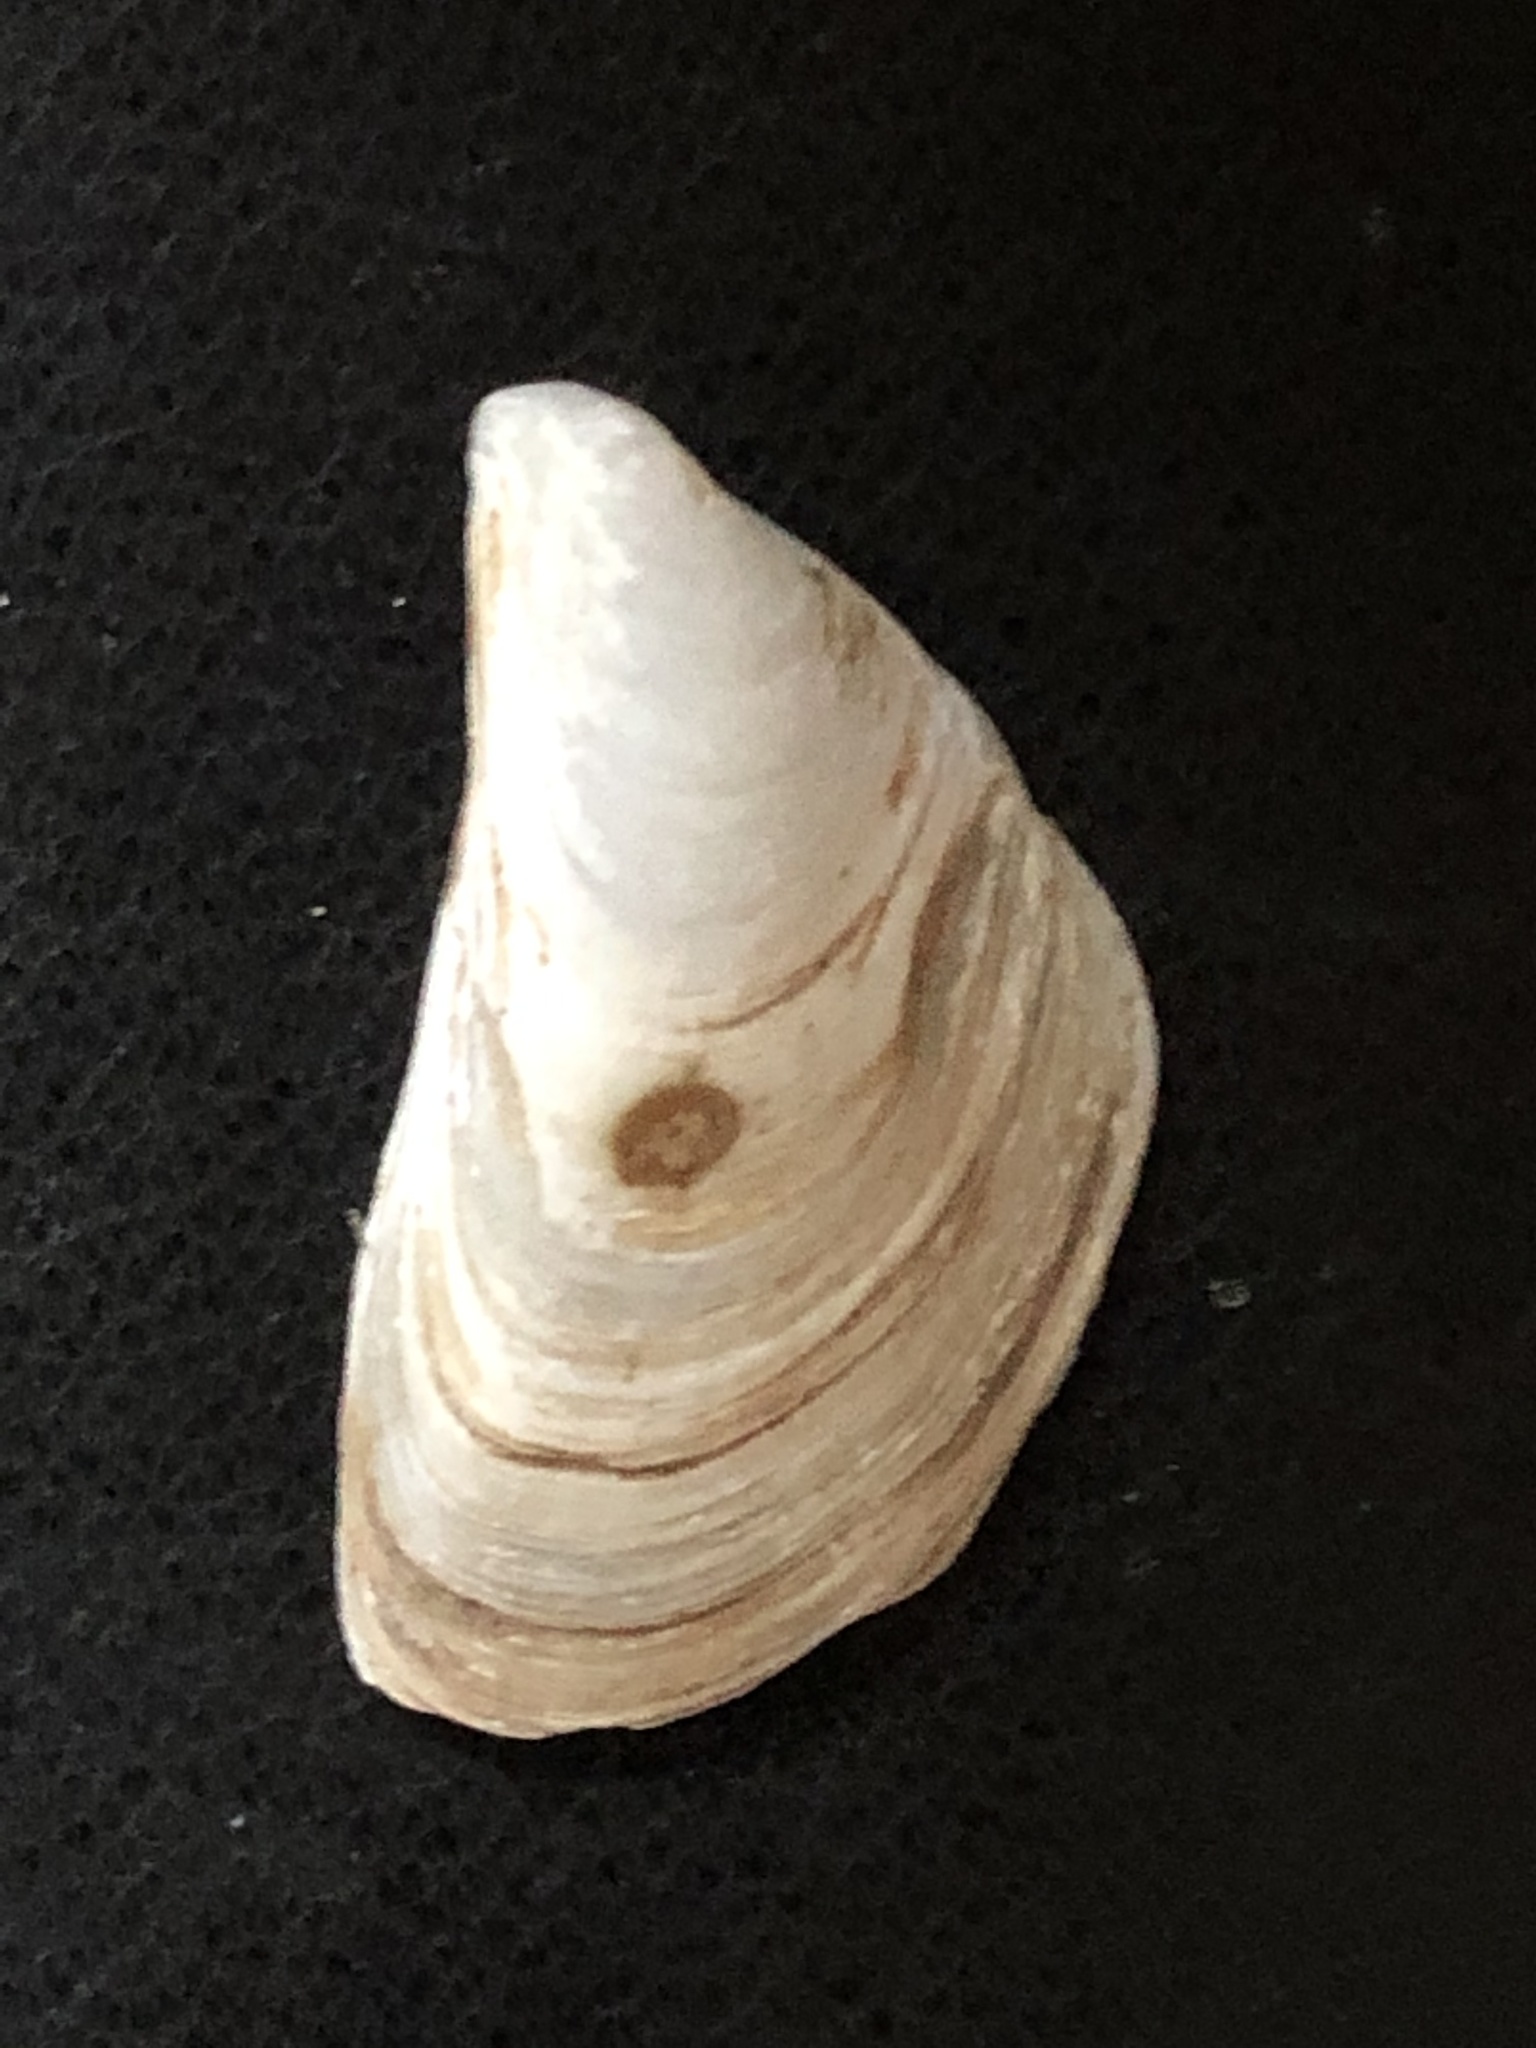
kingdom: Animalia
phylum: Mollusca
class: Bivalvia
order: Myida
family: Dreissenidae
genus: Dreissena
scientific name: Dreissena bugensis
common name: Quagga mussel
